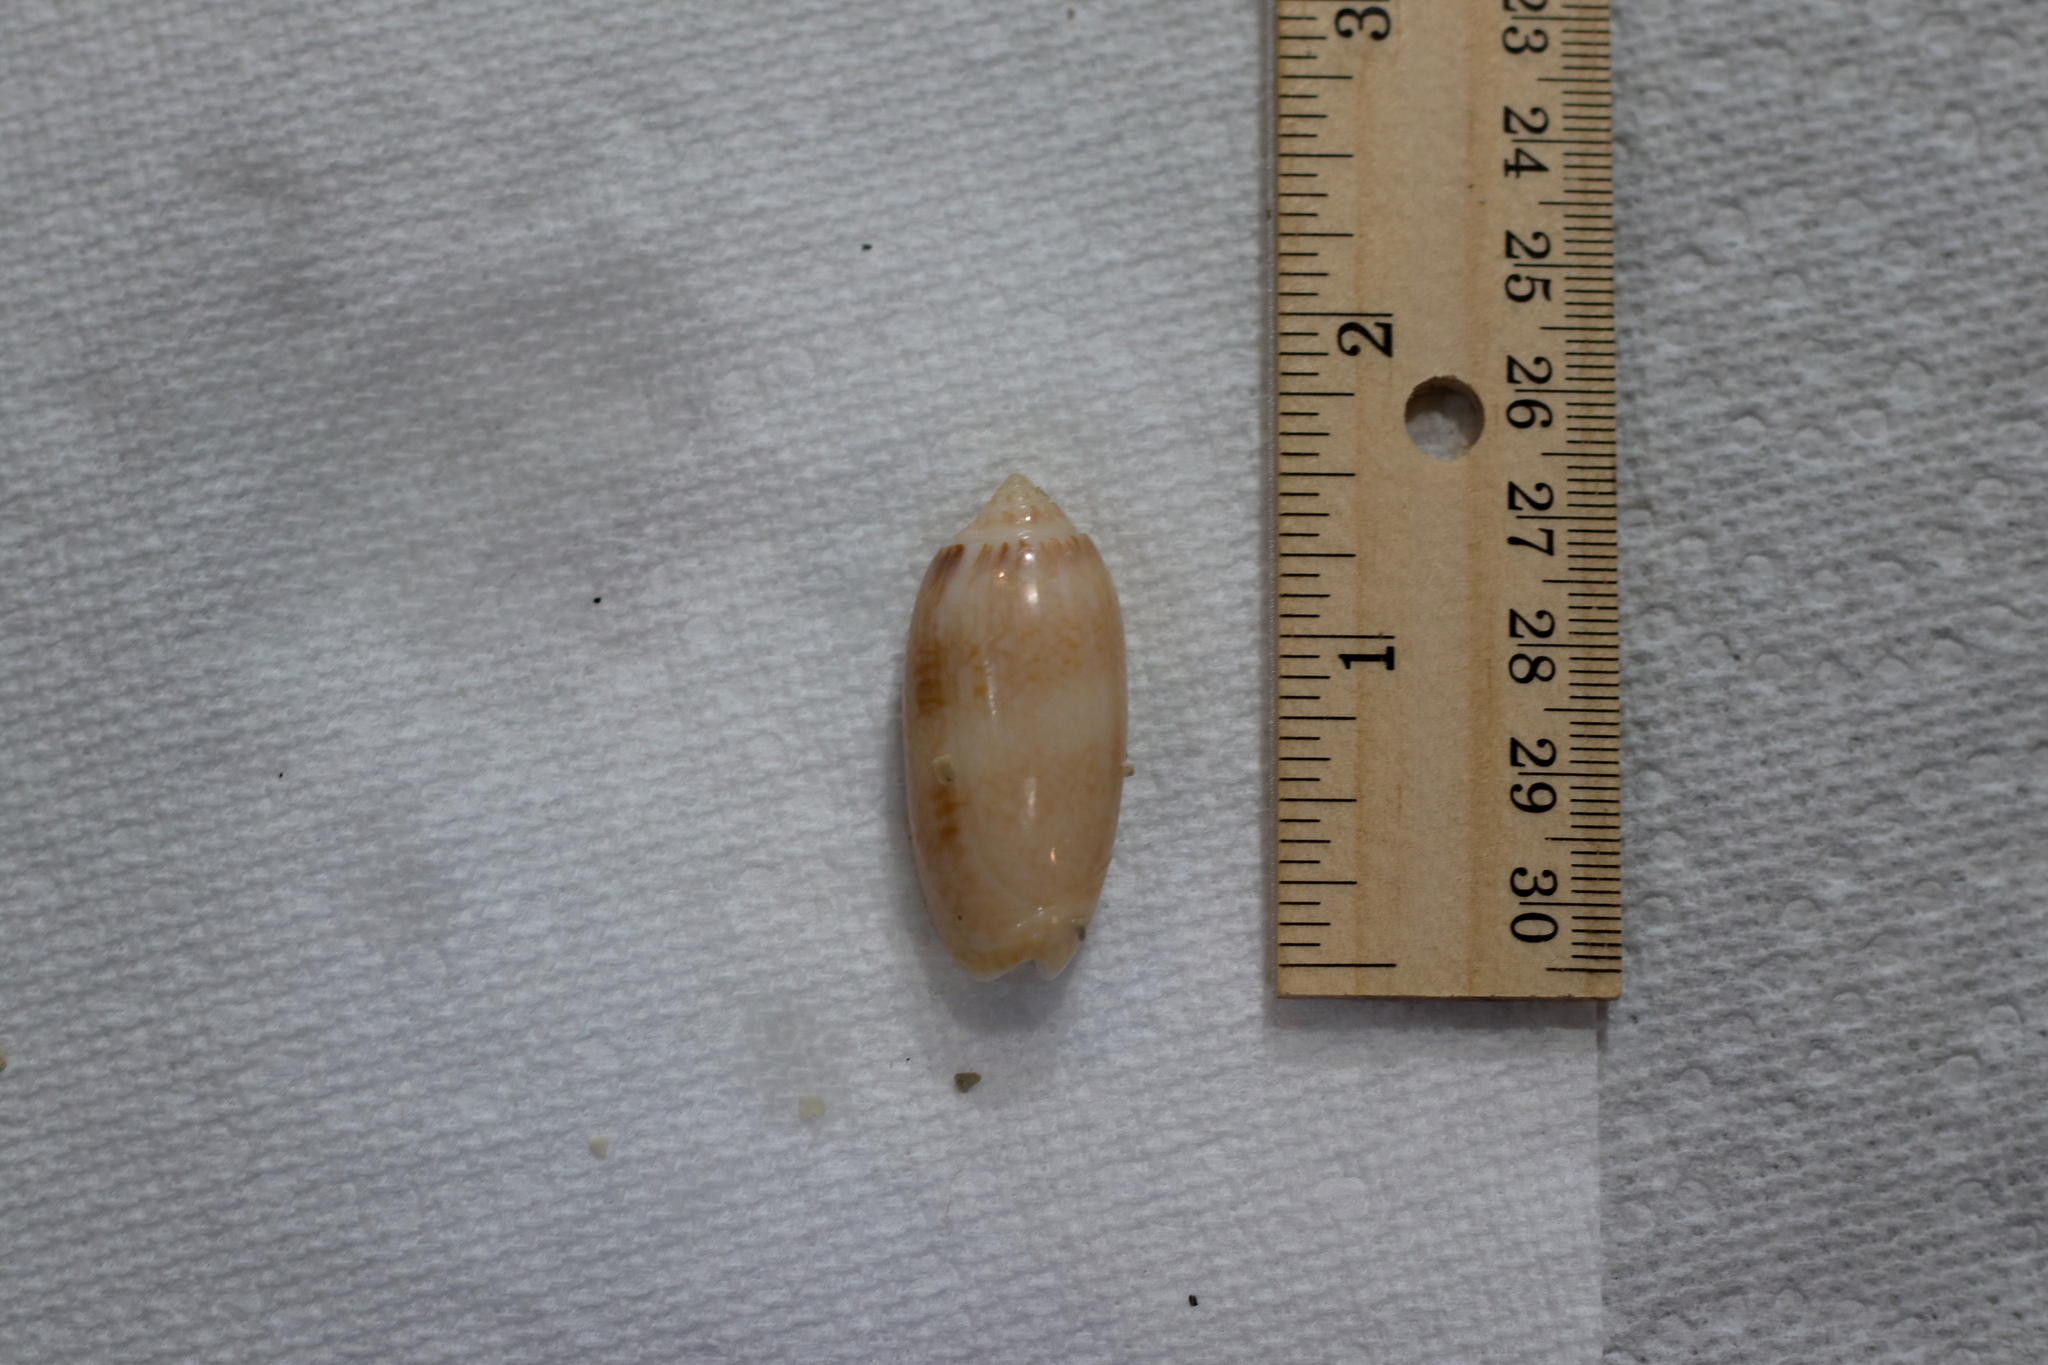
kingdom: Animalia
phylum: Mollusca
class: Gastropoda
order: Neogastropoda
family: Olividae
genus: Oliva
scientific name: Oliva sayana
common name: Lettered olive
